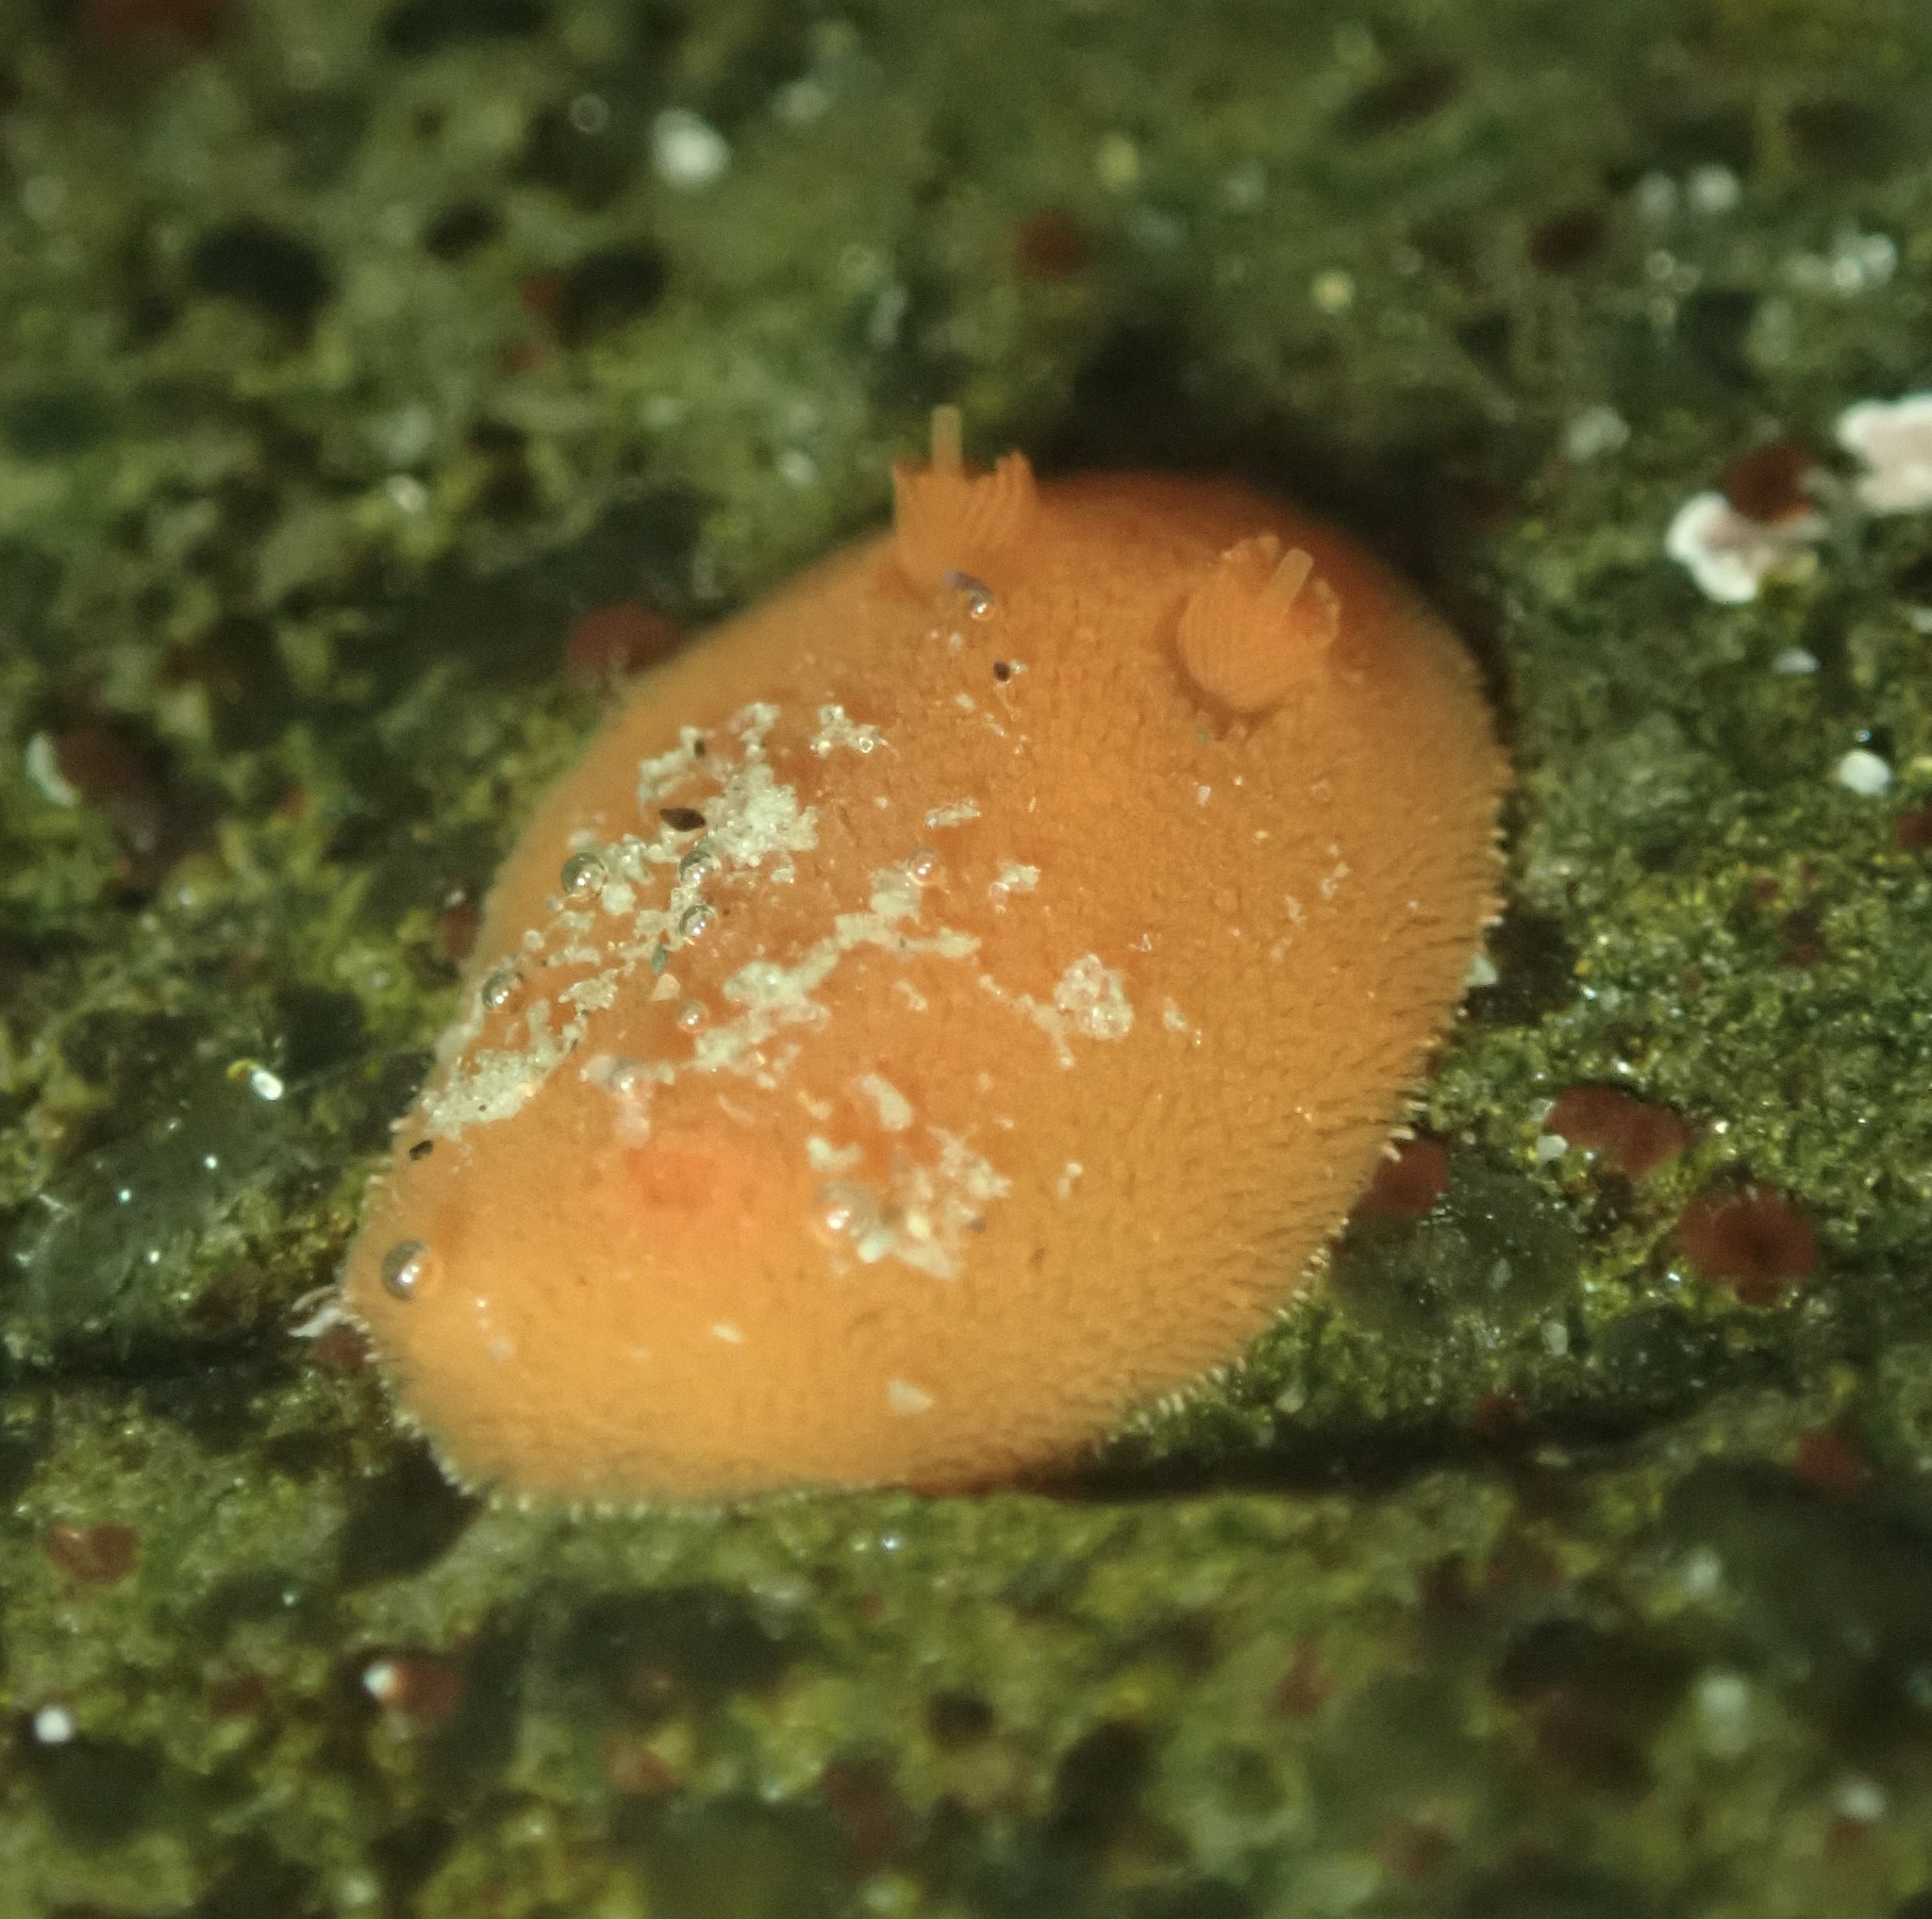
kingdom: Animalia
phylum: Mollusca
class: Gastropoda
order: Nudibranchia
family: Discodorididae
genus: Rostanga
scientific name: Rostanga pulchra
